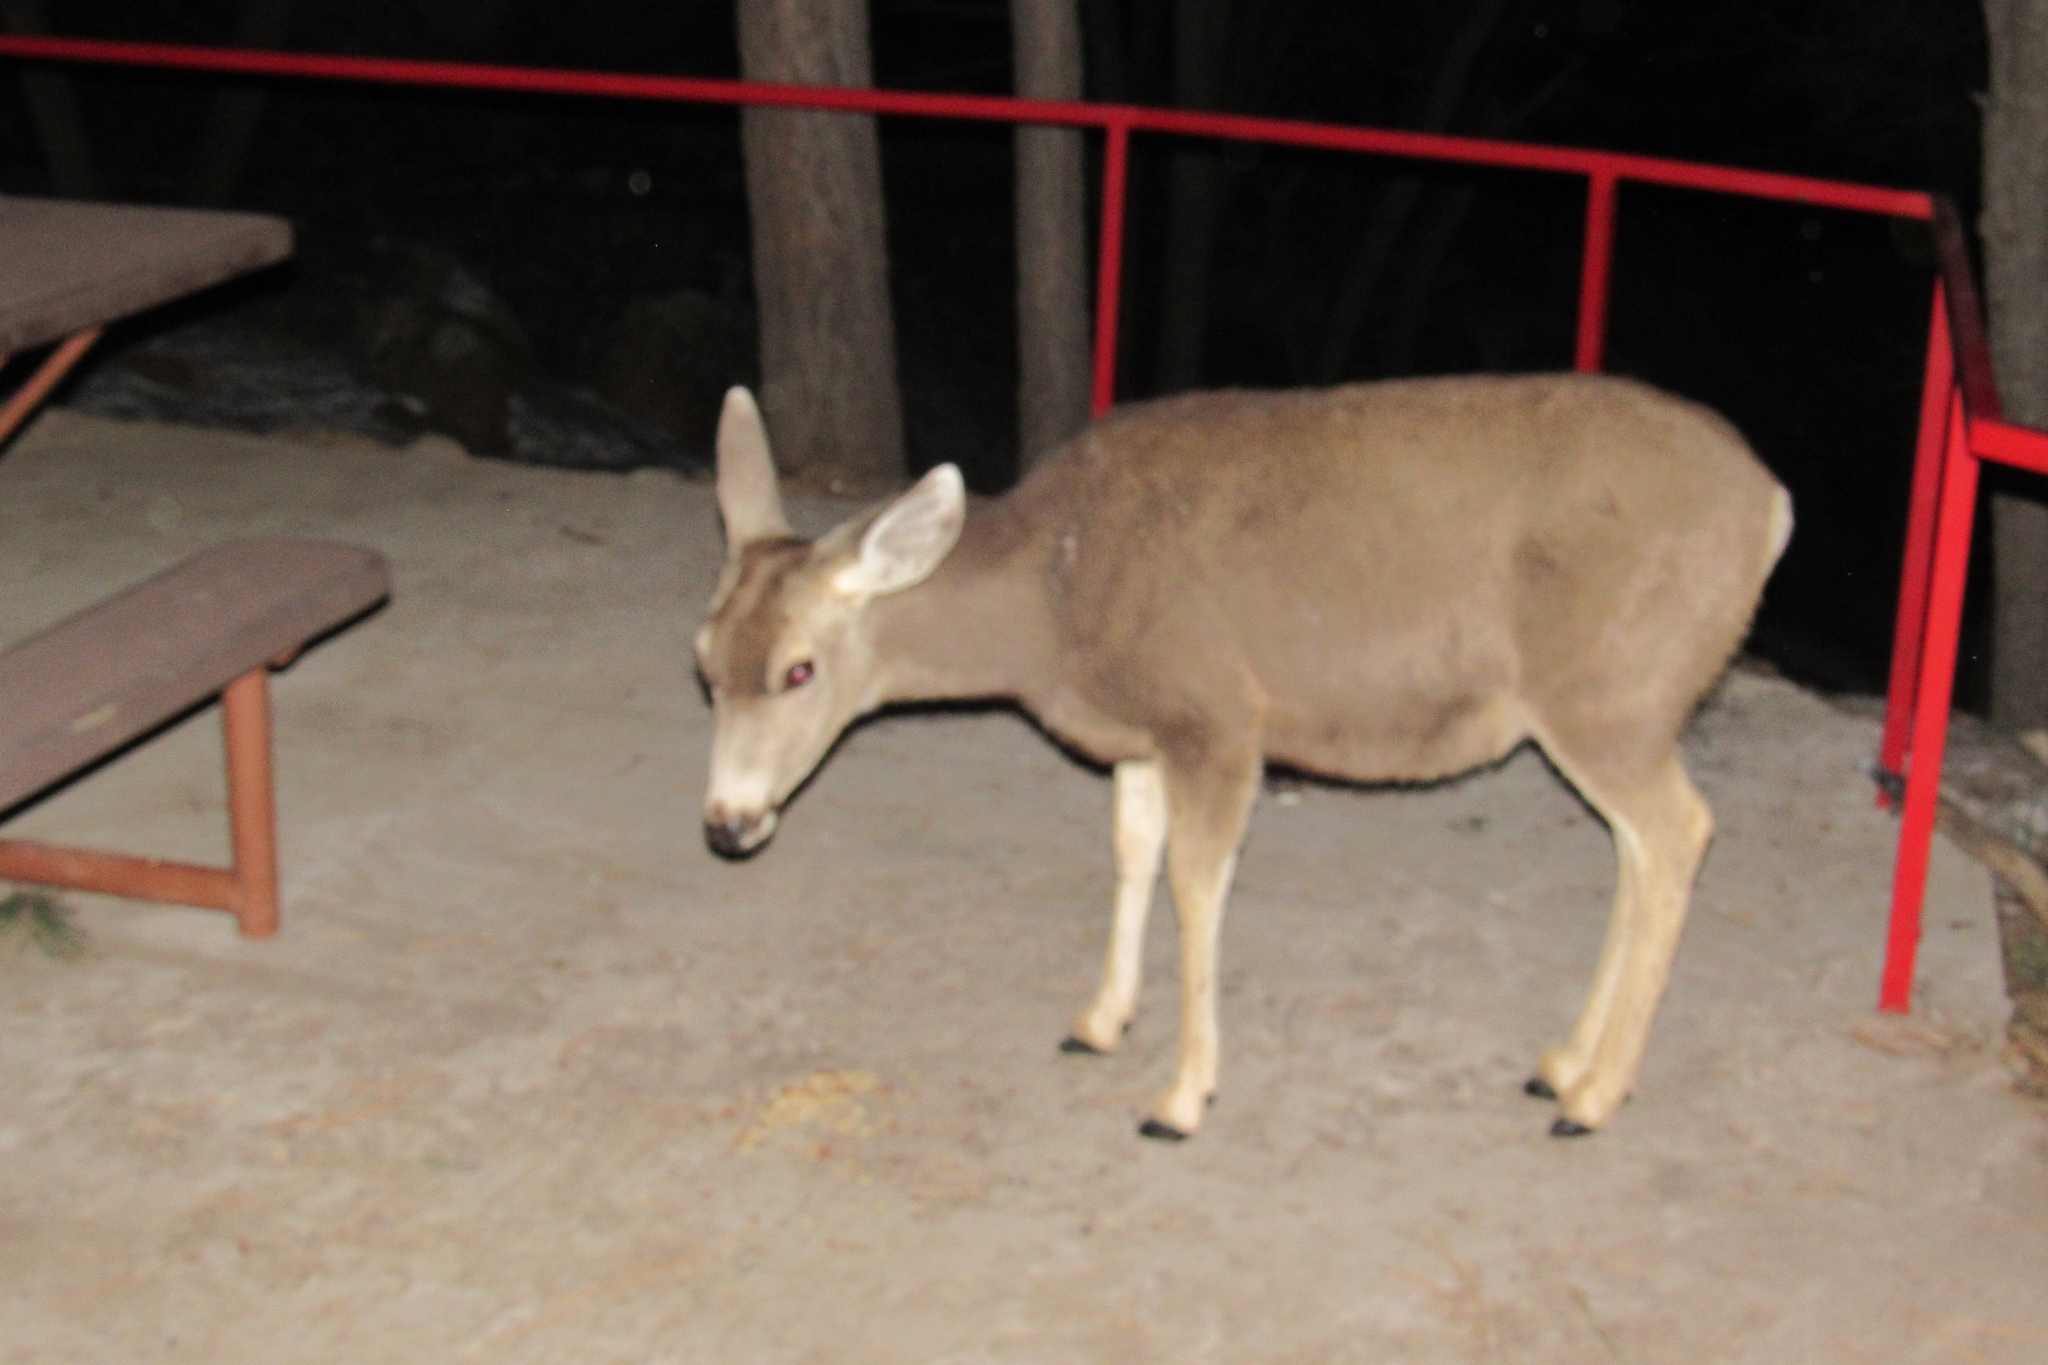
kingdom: Animalia
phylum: Chordata
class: Mammalia
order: Artiodactyla
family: Cervidae
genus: Odocoileus
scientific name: Odocoileus hemionus
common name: Mule deer
